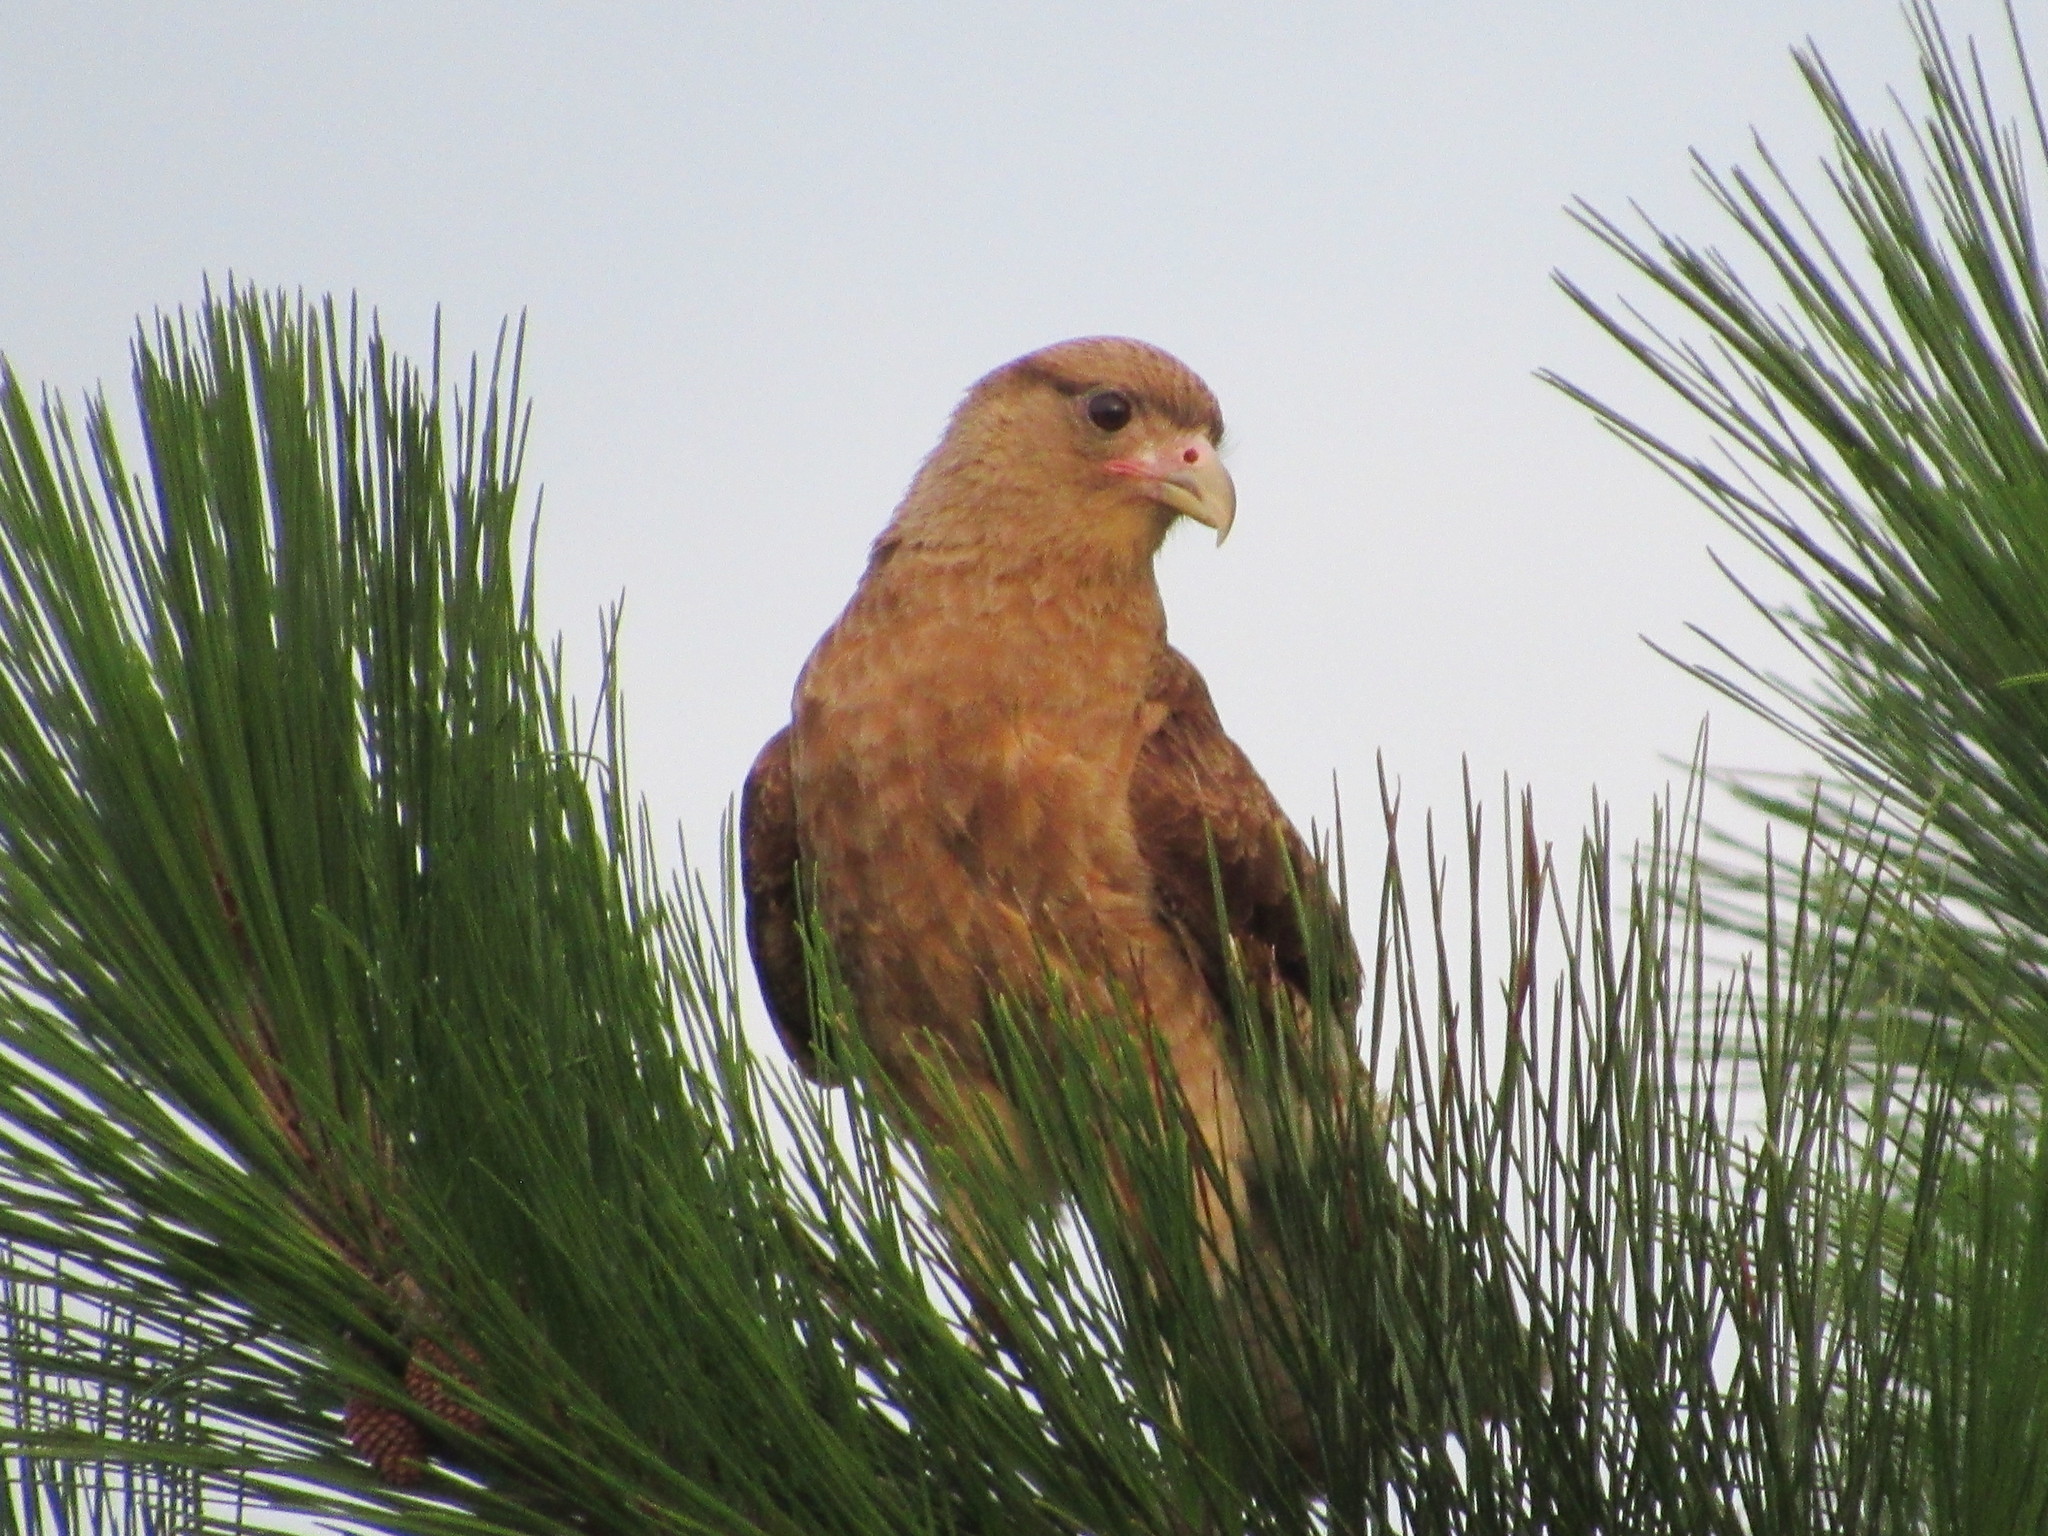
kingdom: Animalia
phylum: Chordata
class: Aves
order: Falconiformes
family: Falconidae
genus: Daptrius
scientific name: Daptrius
